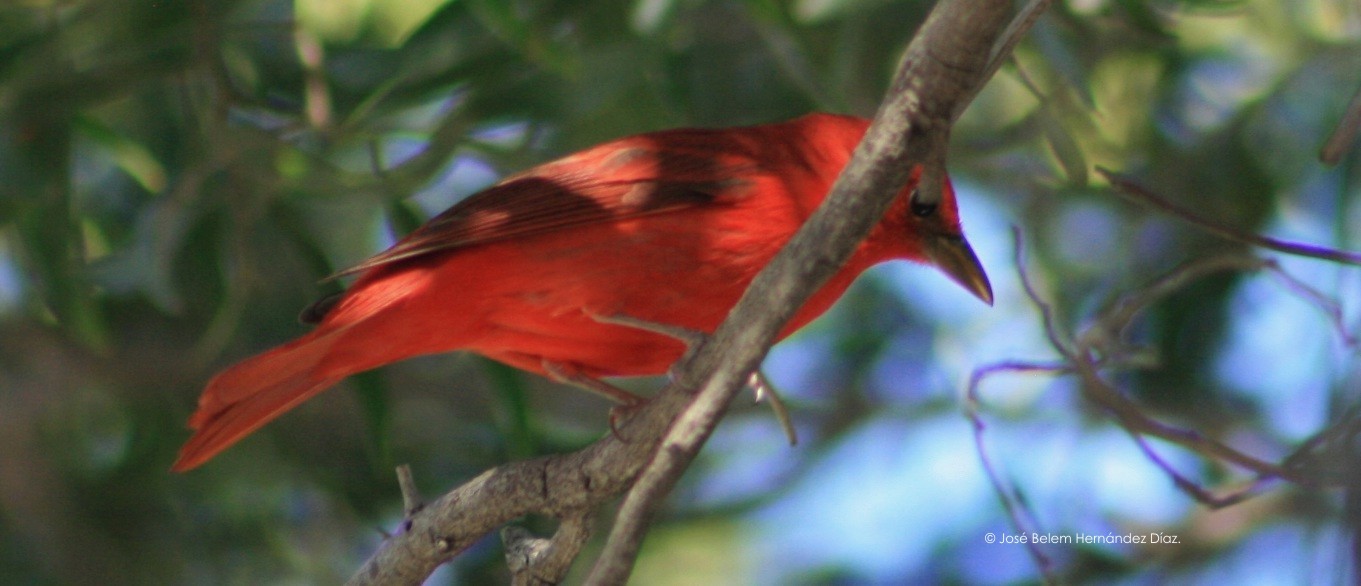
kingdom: Animalia
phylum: Chordata
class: Aves
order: Passeriformes
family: Cardinalidae
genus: Piranga
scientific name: Piranga rubra
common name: Summer tanager
